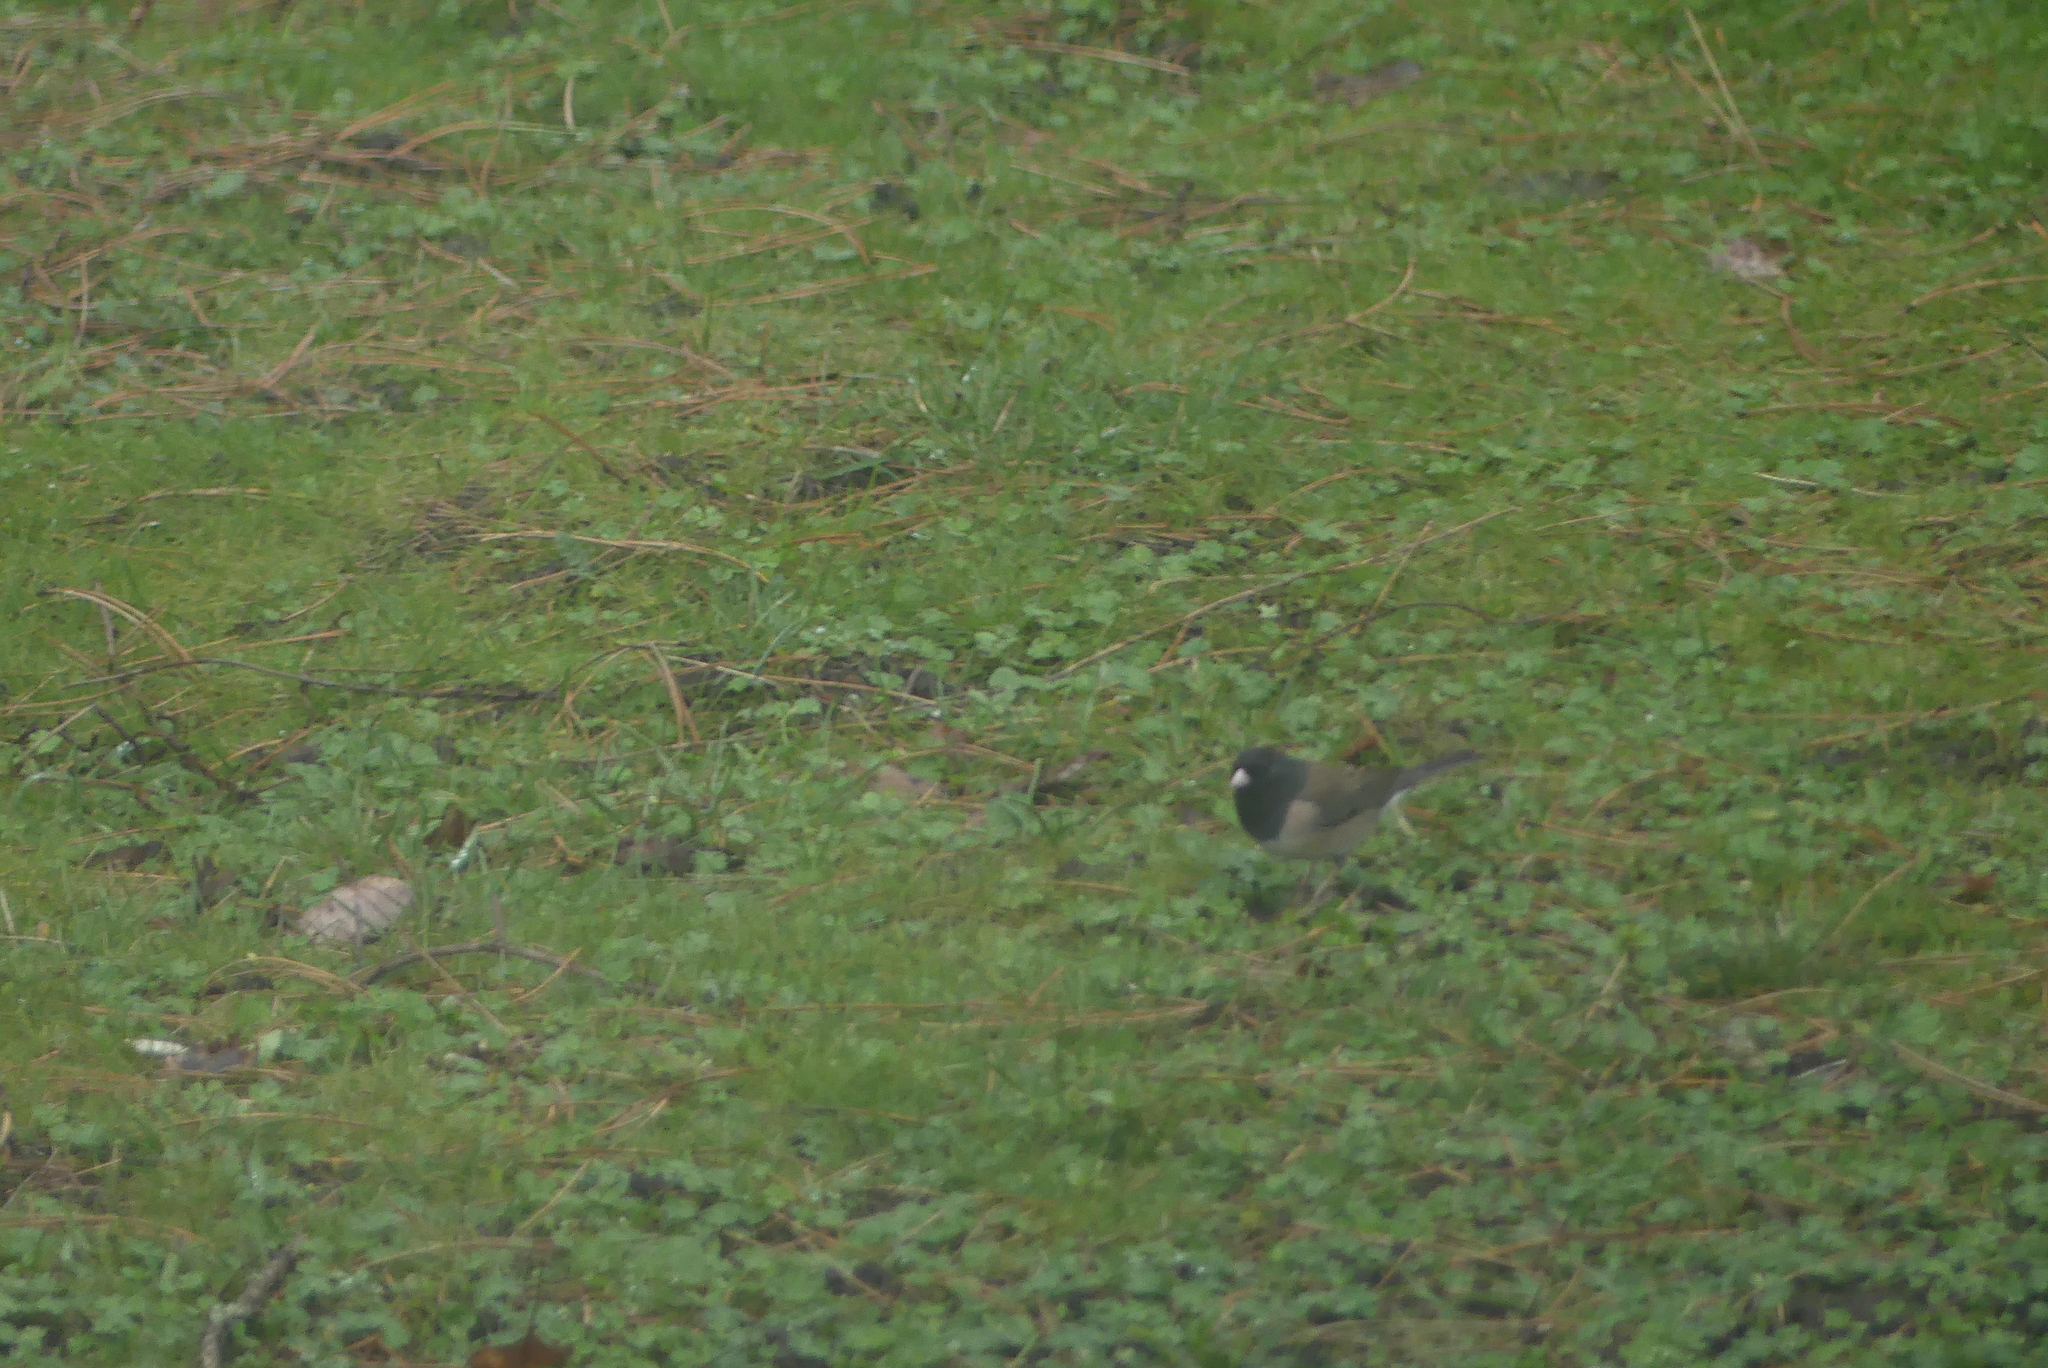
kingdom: Animalia
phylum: Chordata
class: Aves
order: Passeriformes
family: Passerellidae
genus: Junco
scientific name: Junco hyemalis
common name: Dark-eyed junco
